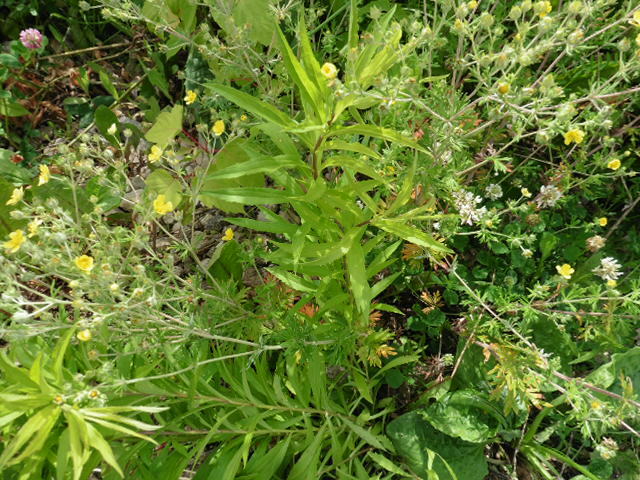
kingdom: Plantae
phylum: Tracheophyta
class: Magnoliopsida
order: Rosales
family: Rosaceae
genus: Potentilla
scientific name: Potentilla argentea
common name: Hoary cinquefoil
